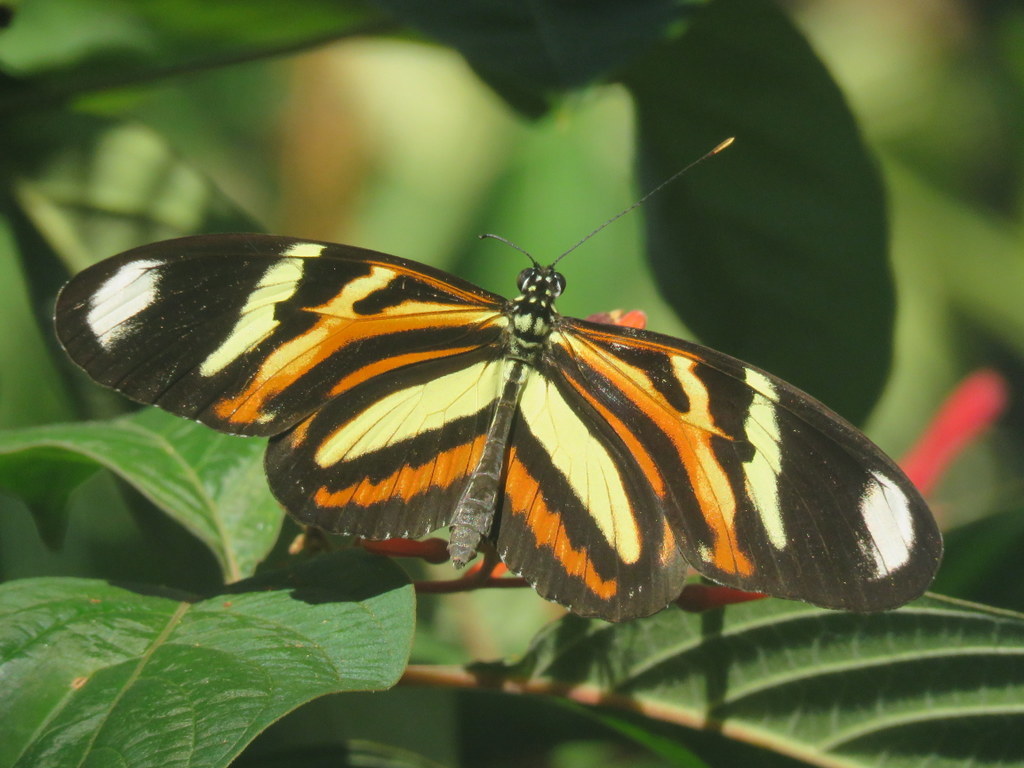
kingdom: Animalia
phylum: Arthropoda
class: Insecta
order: Lepidoptera
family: Nymphalidae
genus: Heliconius
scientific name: Heliconius ethilla
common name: Ethilia longwing
